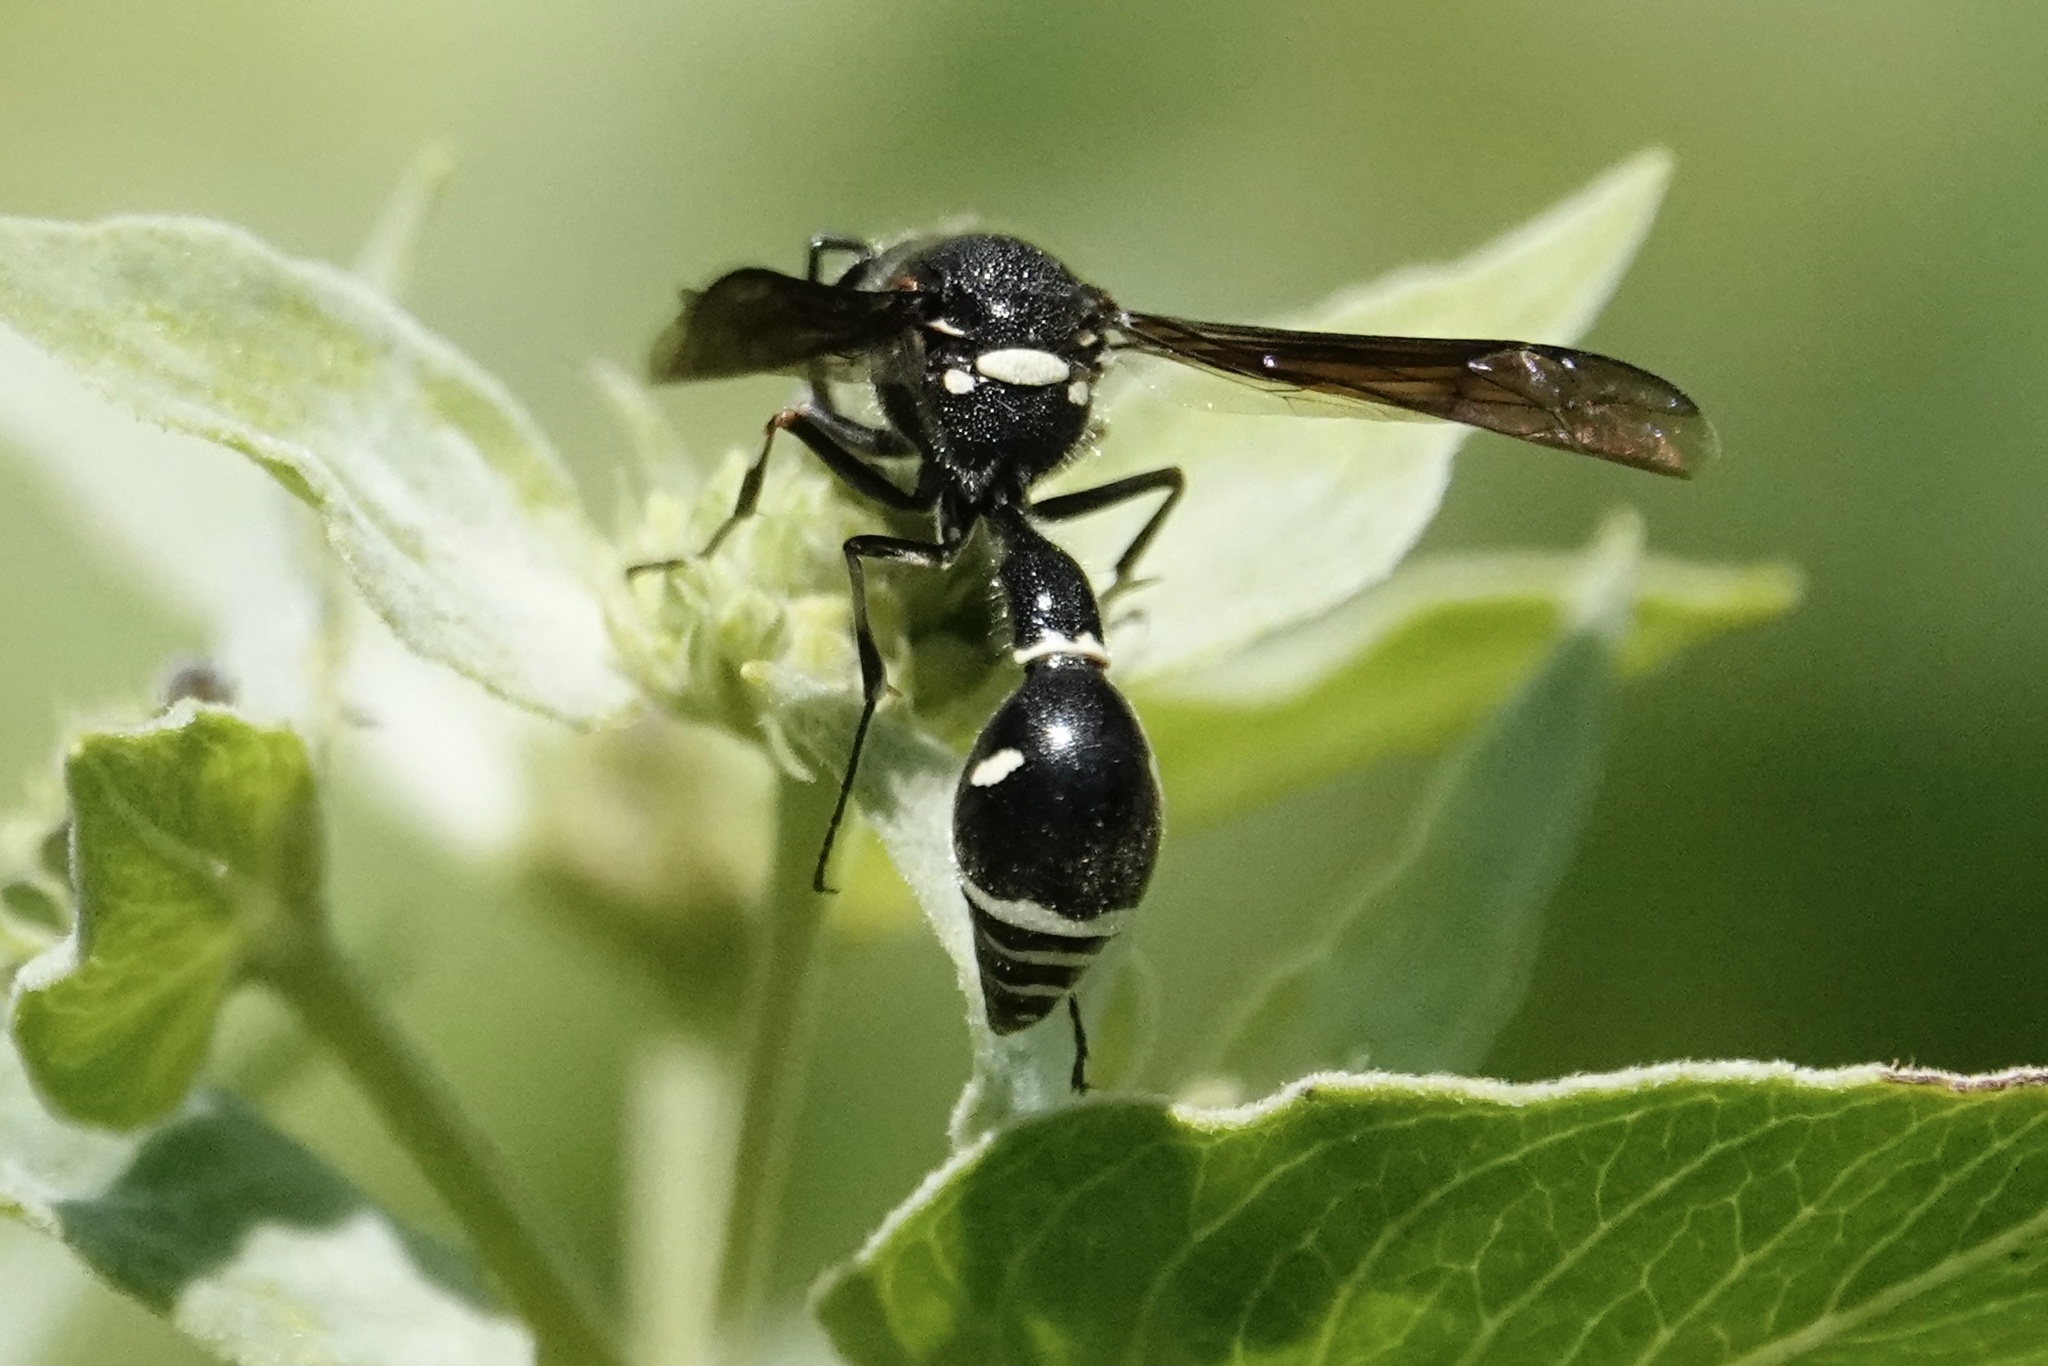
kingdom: Animalia
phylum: Arthropoda
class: Insecta
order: Hymenoptera
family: Vespidae
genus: Eumenes
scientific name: Eumenes fraternus
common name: Fraternal potter wasp
